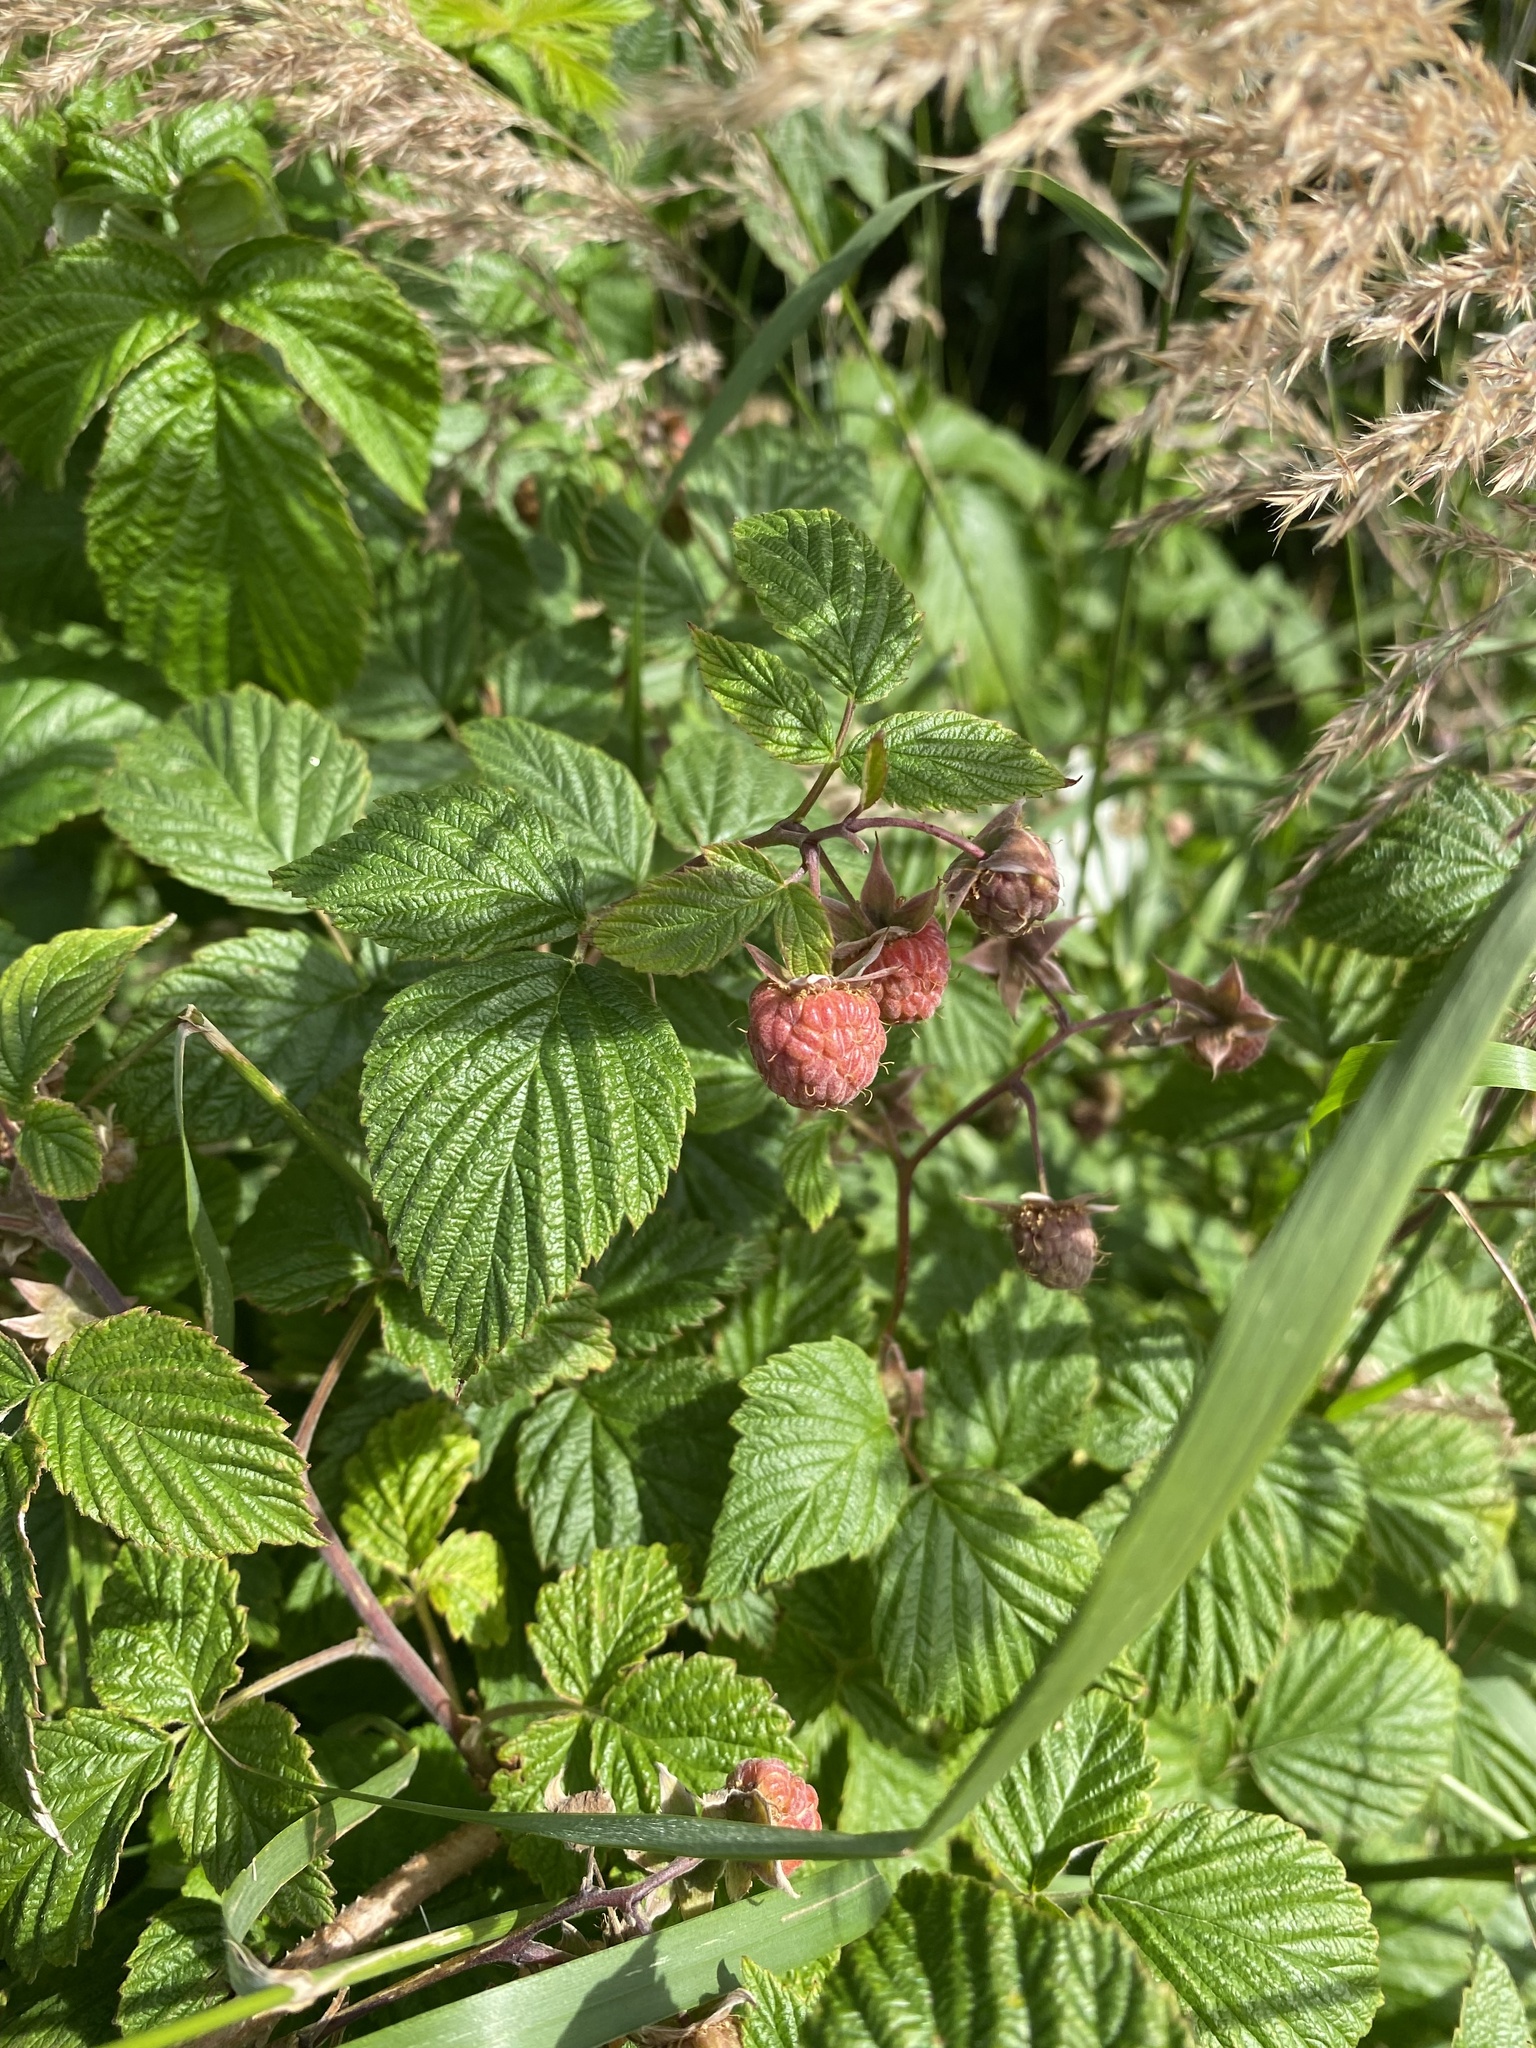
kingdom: Plantae
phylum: Tracheophyta
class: Magnoliopsida
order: Rosales
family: Rosaceae
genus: Rubus
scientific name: Rubus idaeus
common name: Raspberry
